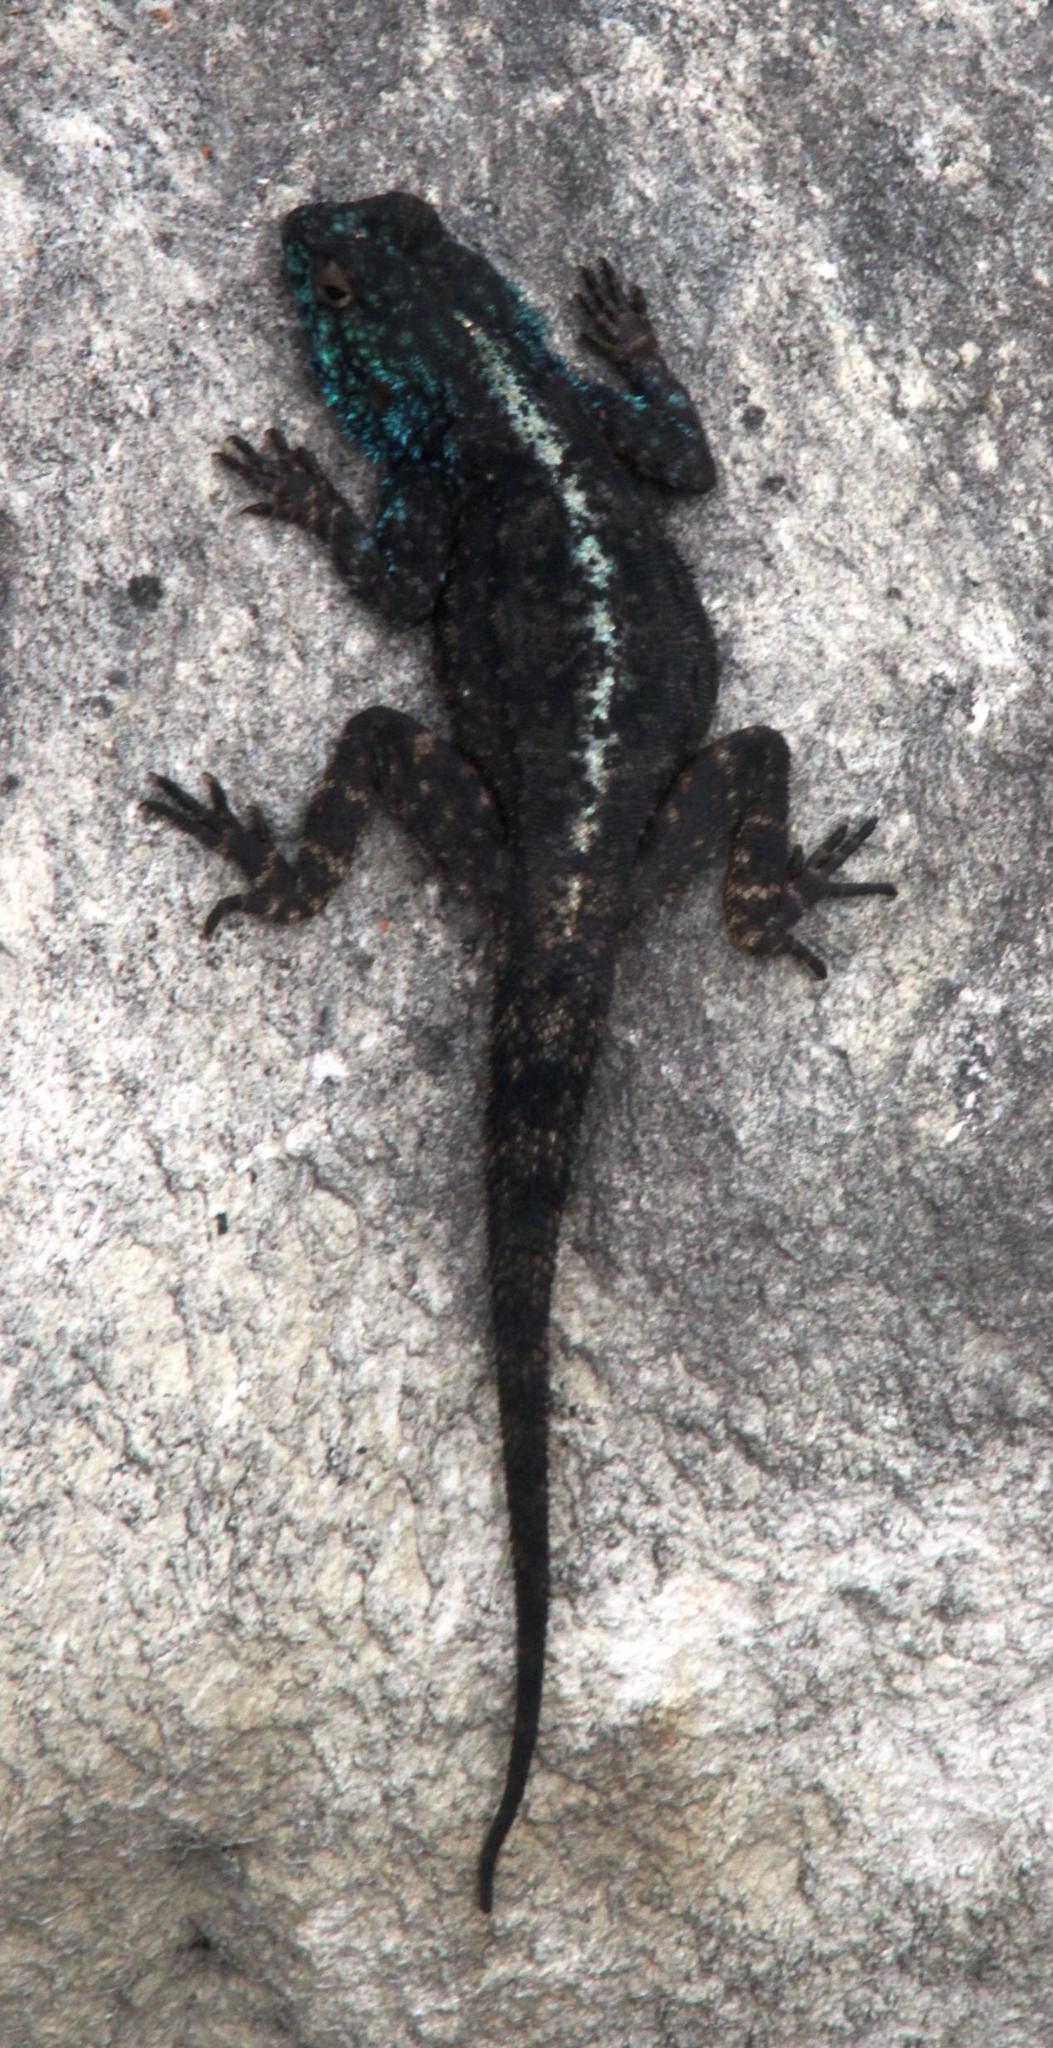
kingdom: Animalia
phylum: Chordata
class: Squamata
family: Agamidae
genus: Agama
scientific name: Agama atra
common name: Southern african rock agama
